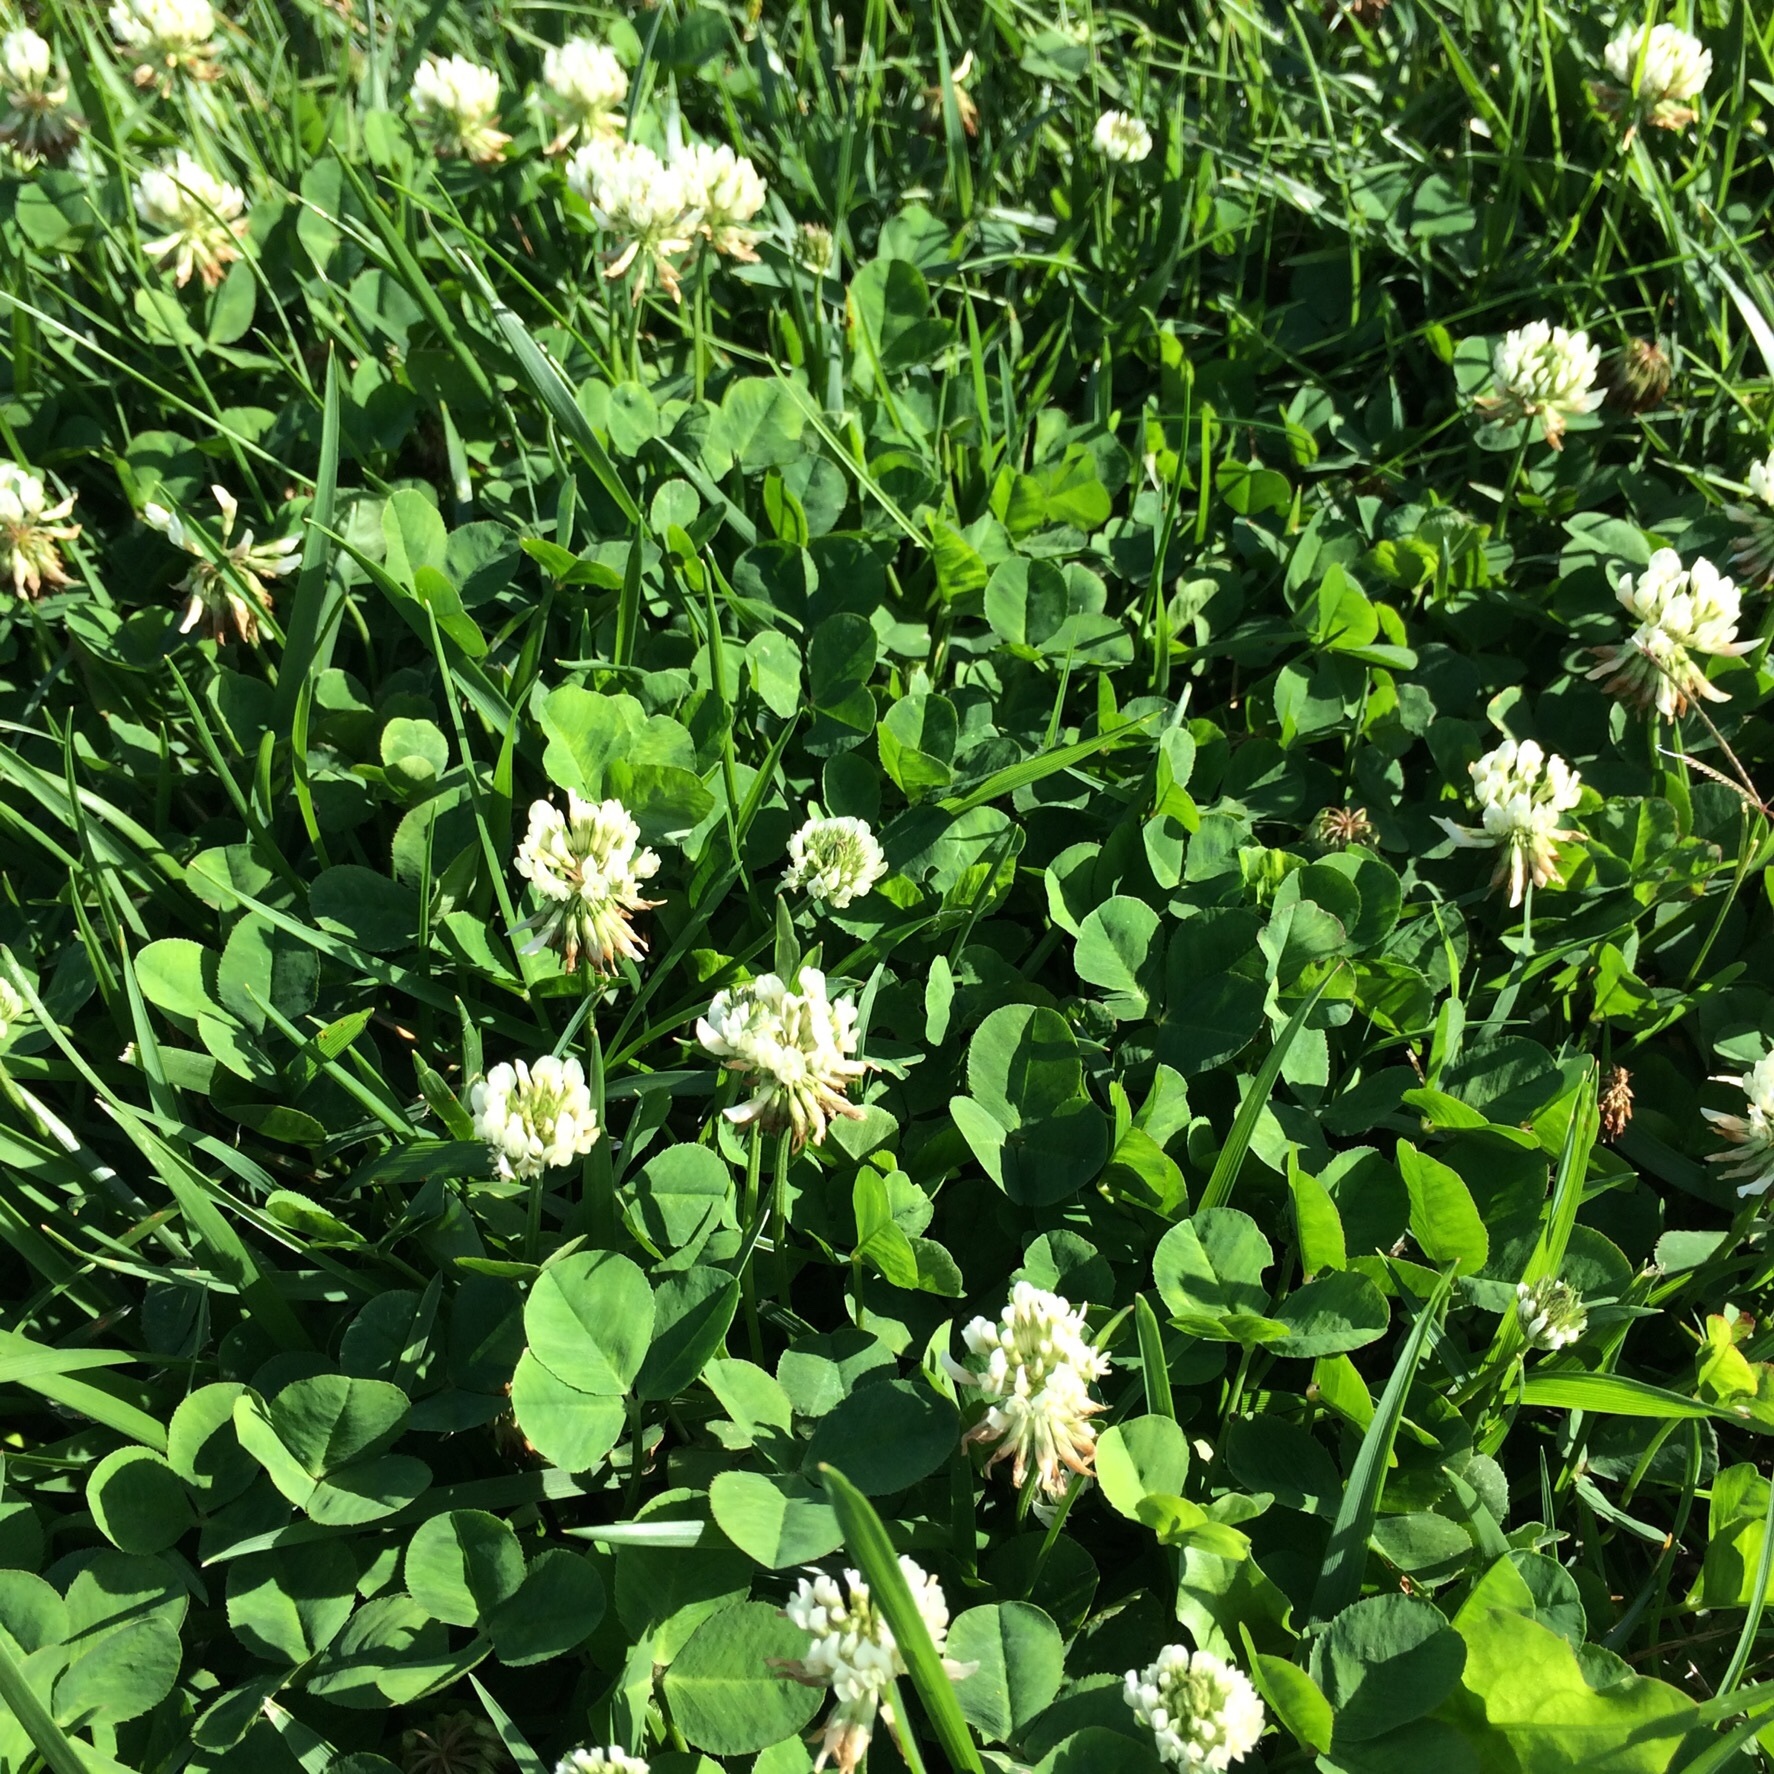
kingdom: Plantae
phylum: Tracheophyta
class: Magnoliopsida
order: Fabales
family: Fabaceae
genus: Trifolium
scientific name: Trifolium repens
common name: White clover
